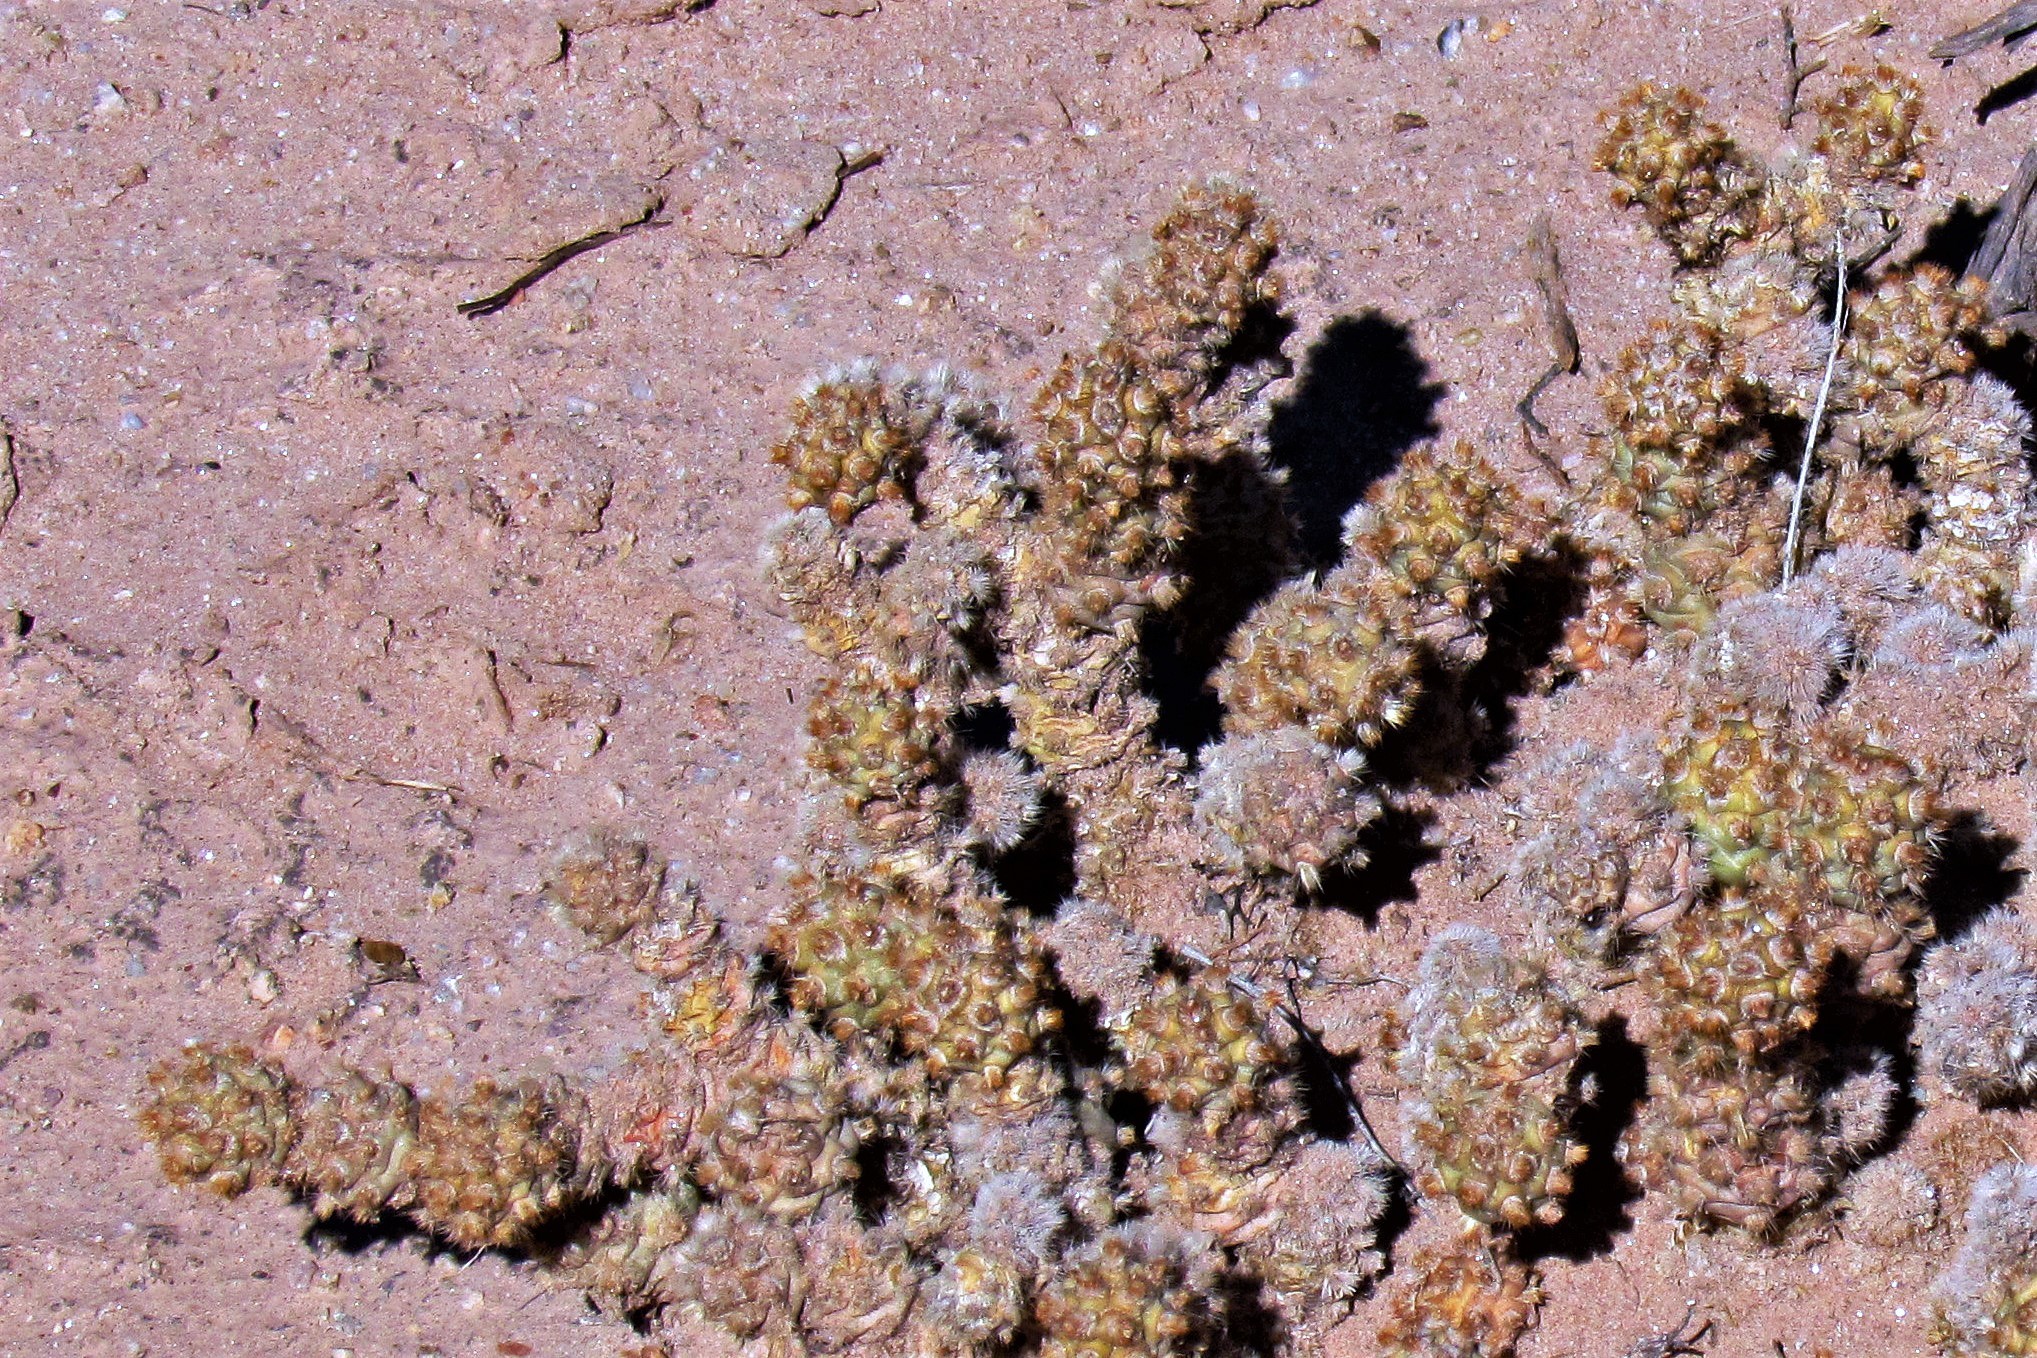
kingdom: Plantae
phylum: Tracheophyta
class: Magnoliopsida
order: Caryophyllales
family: Cactaceae
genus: Tephrocactus
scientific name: Tephrocactus molinensis
